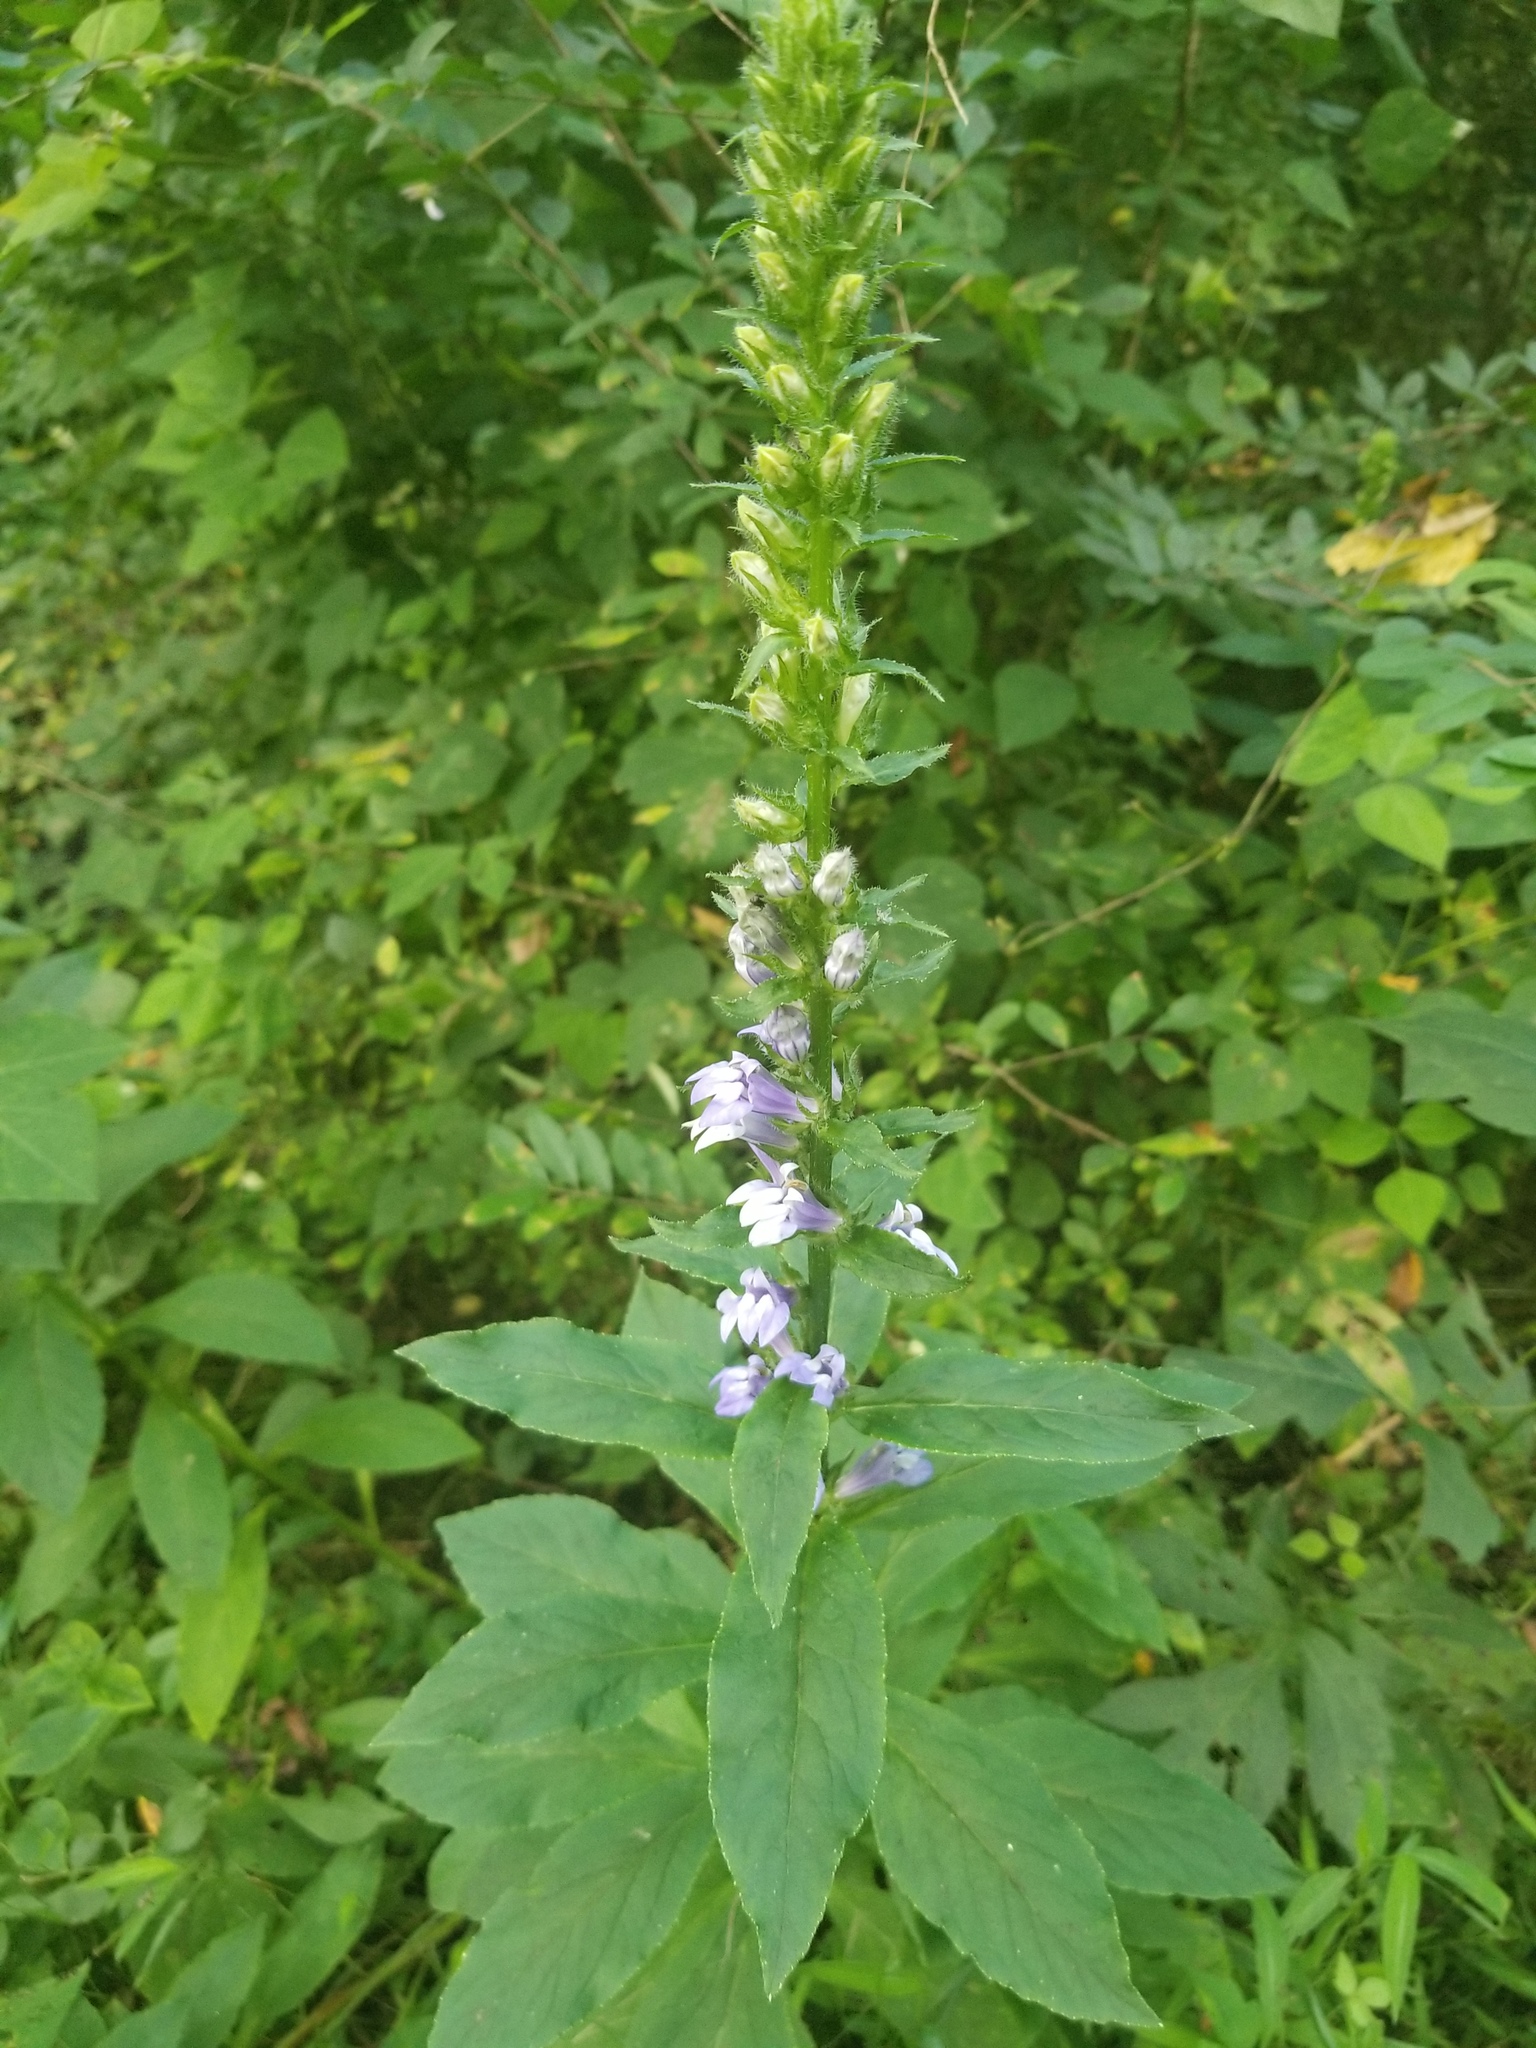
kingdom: Plantae
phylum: Tracheophyta
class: Magnoliopsida
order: Asterales
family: Campanulaceae
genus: Lobelia
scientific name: Lobelia siphilitica
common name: Great lobelia
